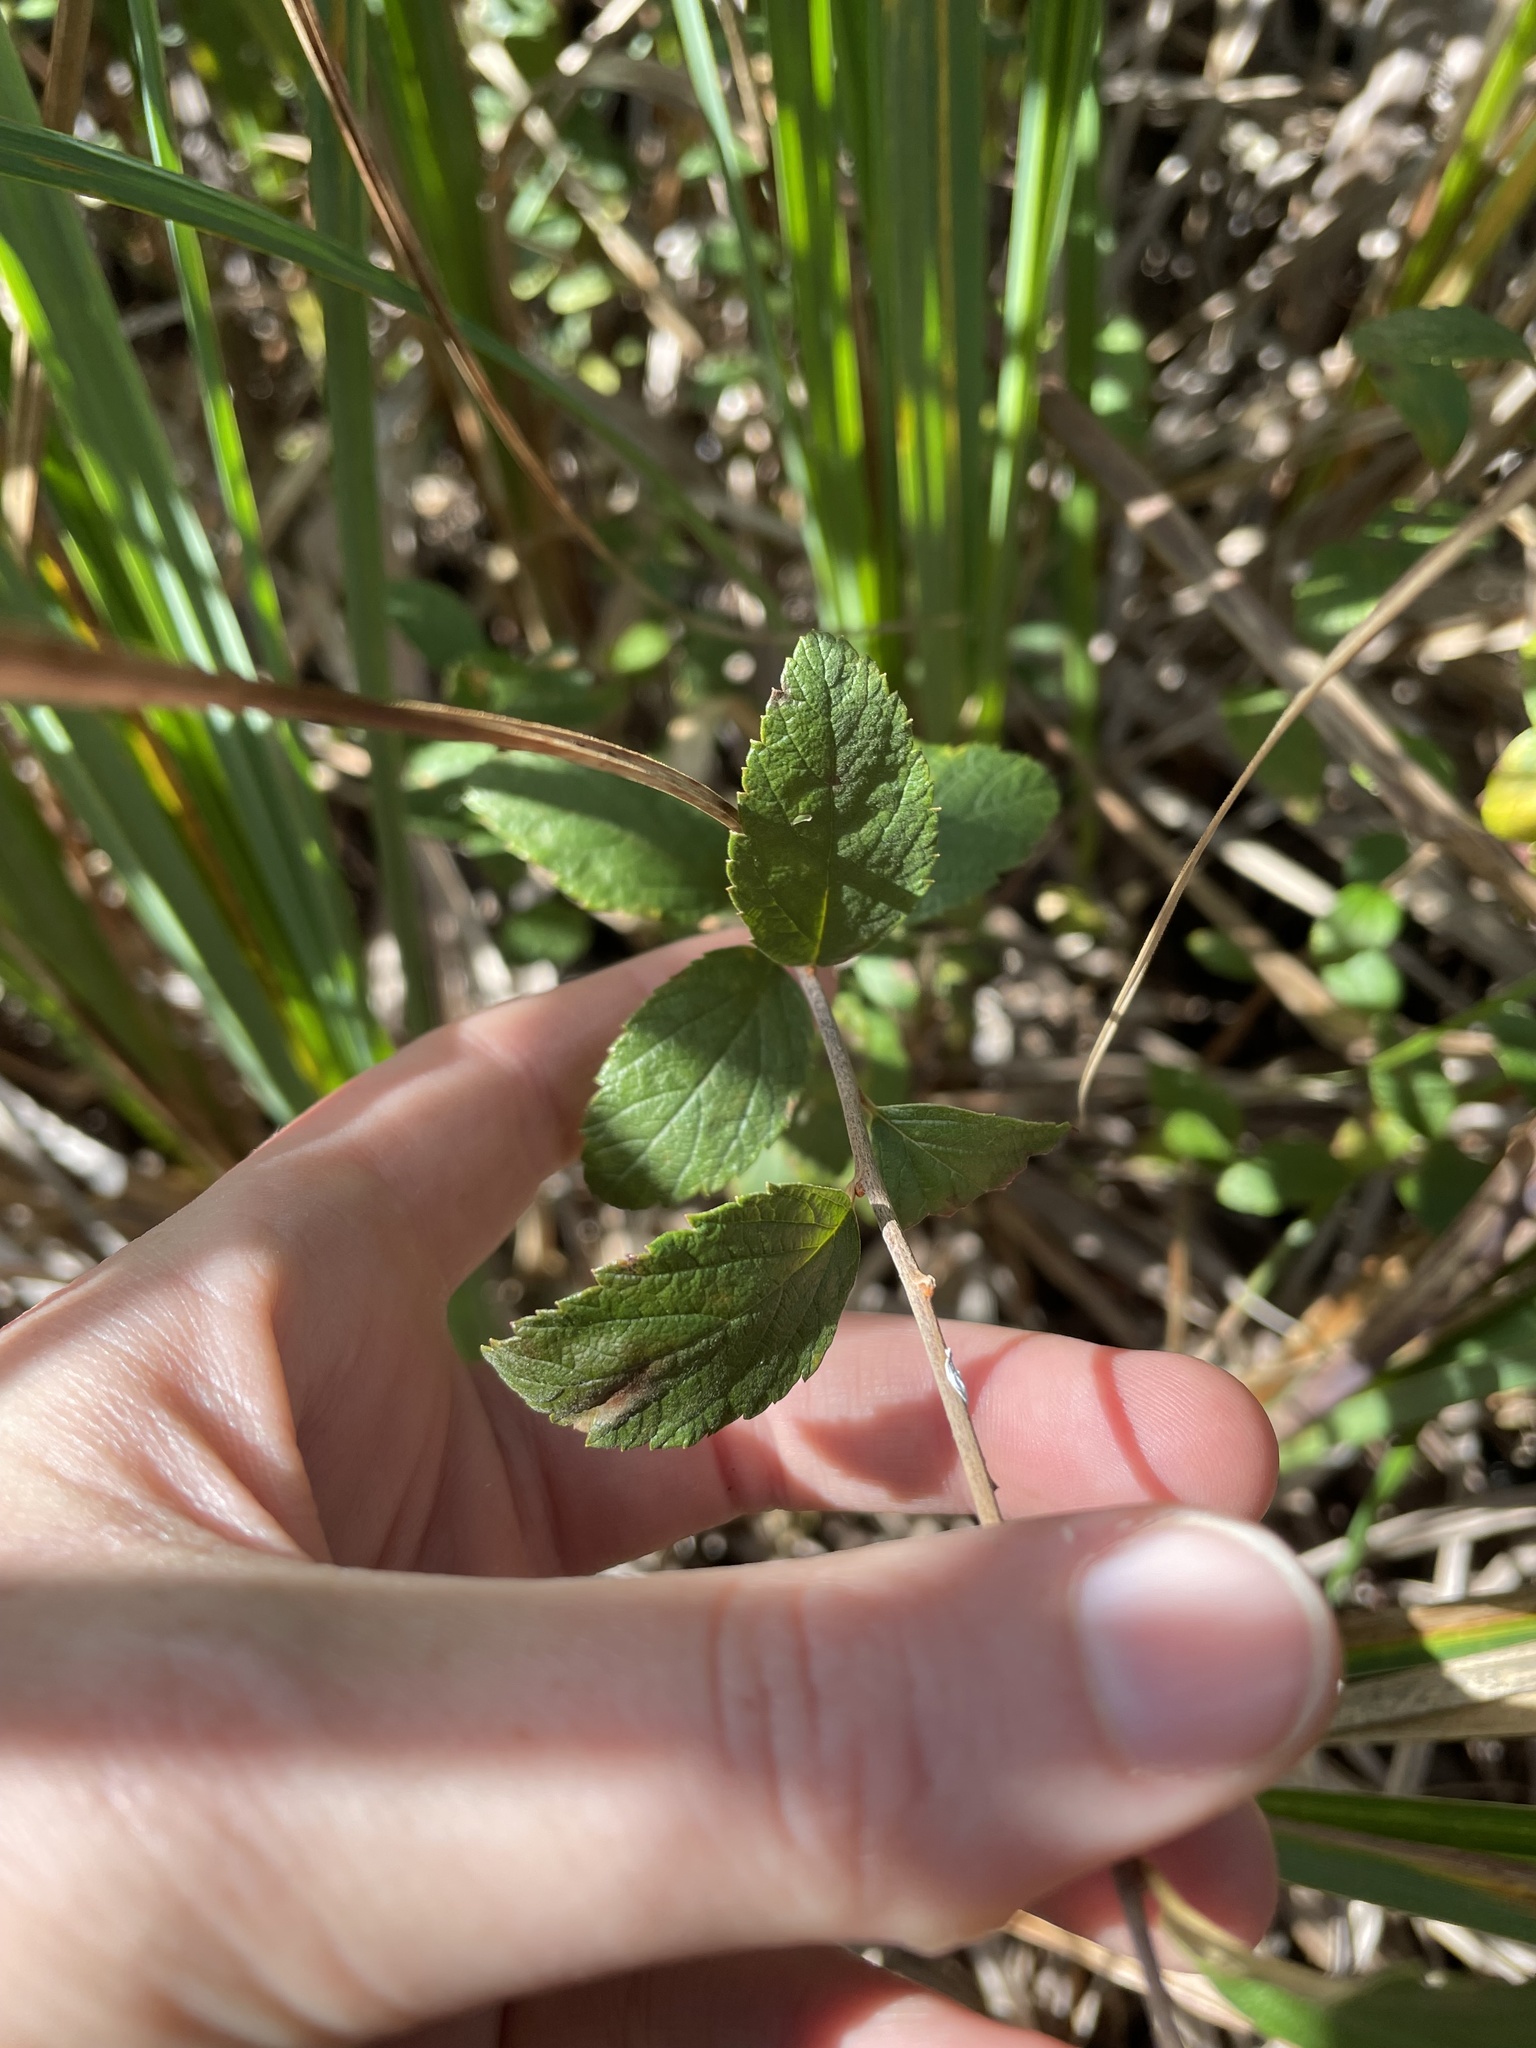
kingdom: Plantae
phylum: Tracheophyta
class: Magnoliopsida
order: Rosales
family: Rosaceae
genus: Spiraea
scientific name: Spiraea tomentosa
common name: Hardhack
